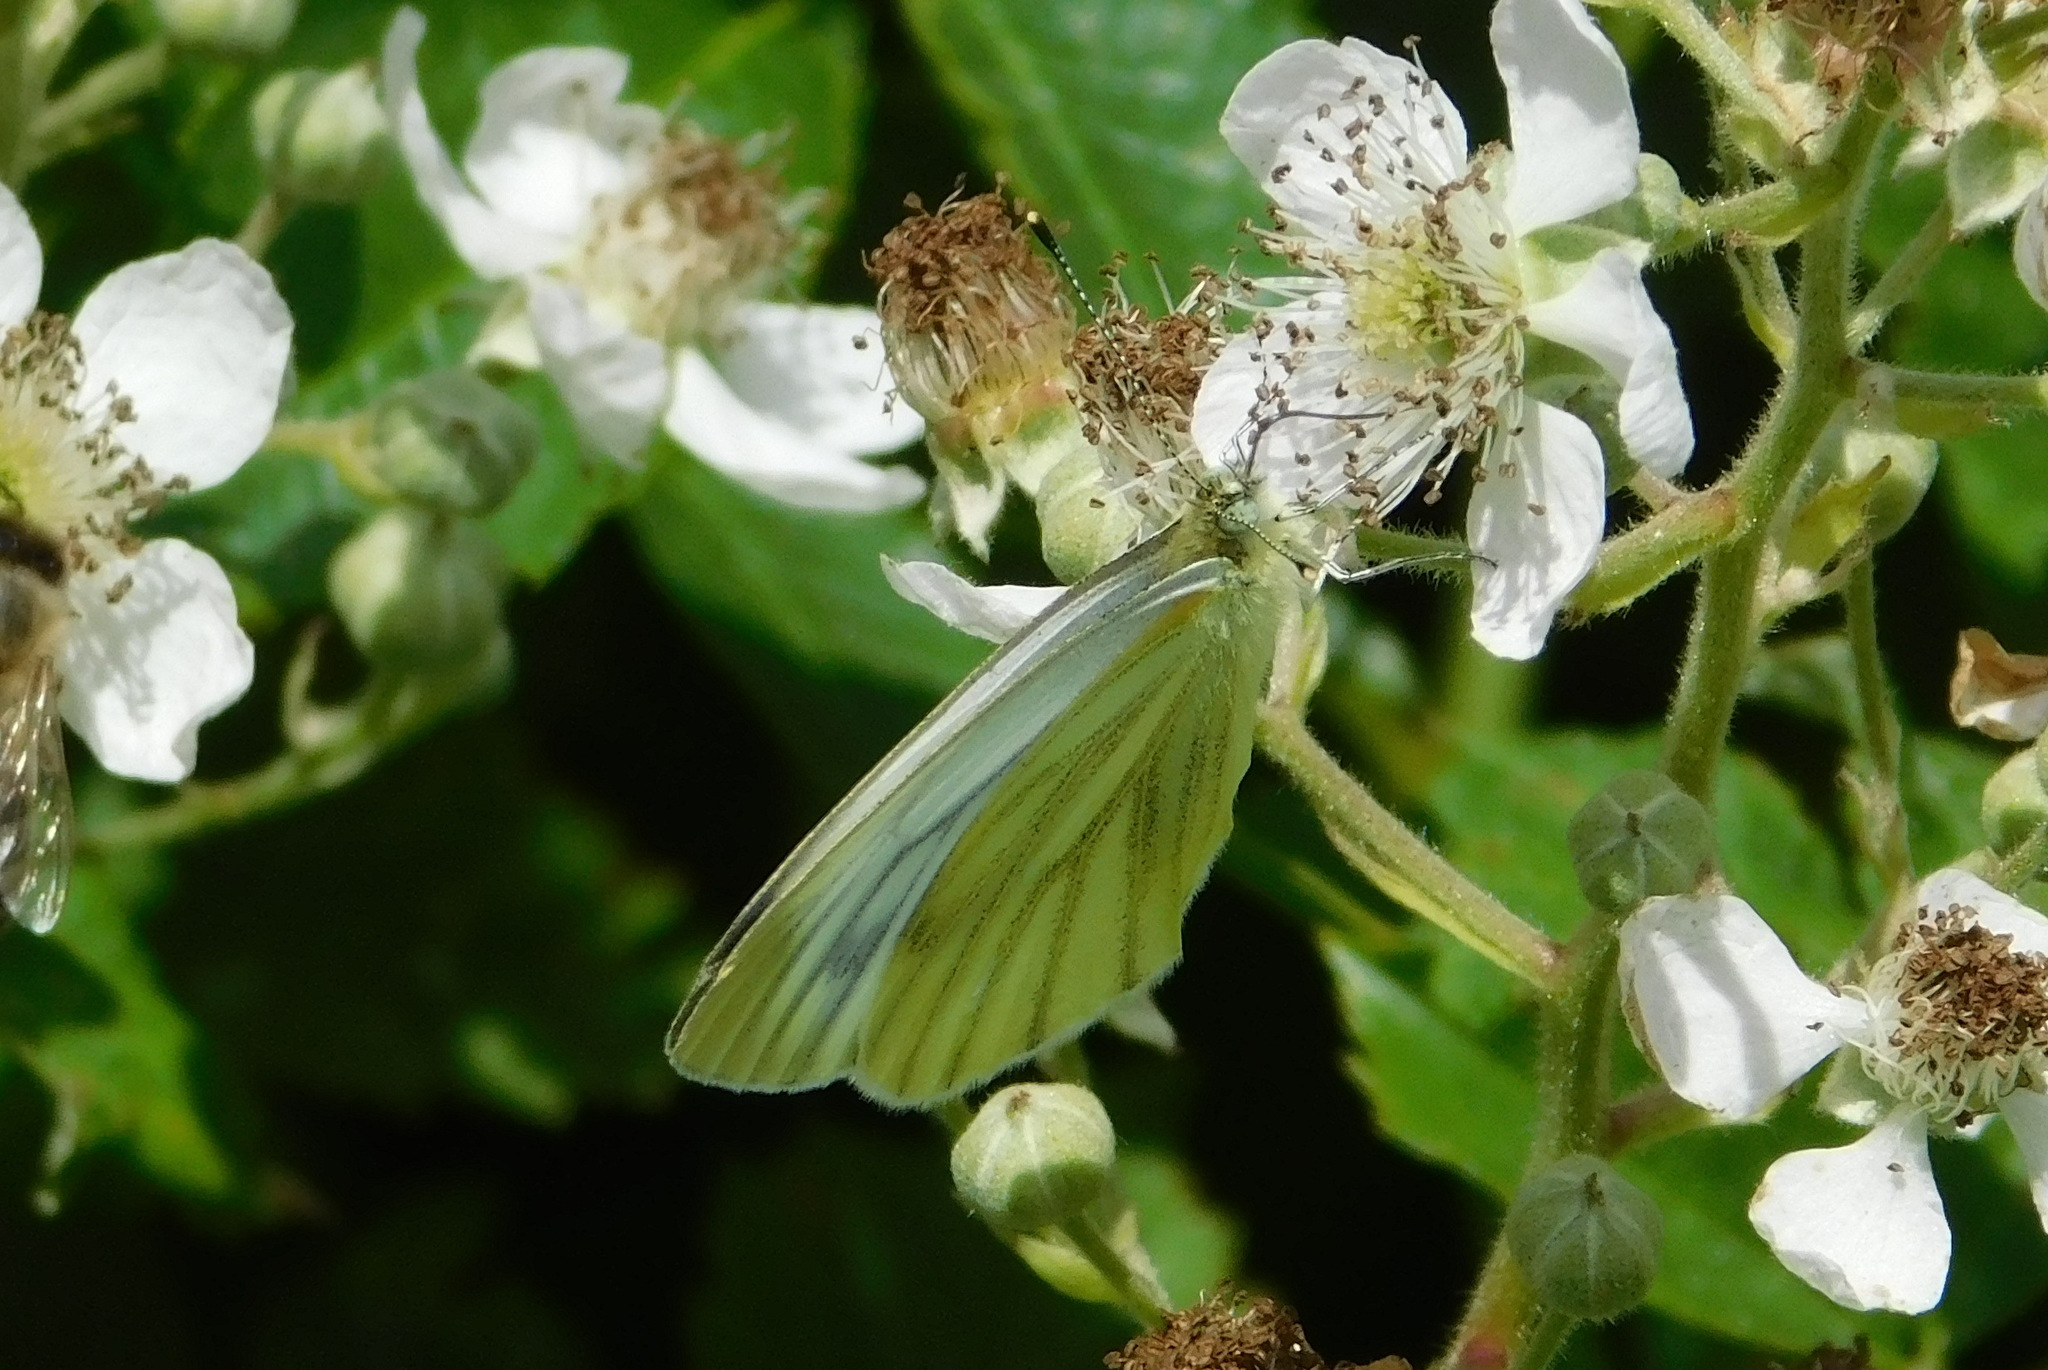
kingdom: Animalia
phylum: Arthropoda
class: Insecta
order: Lepidoptera
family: Pieridae
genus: Pieris
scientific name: Pieris napi
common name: Green-veined white
